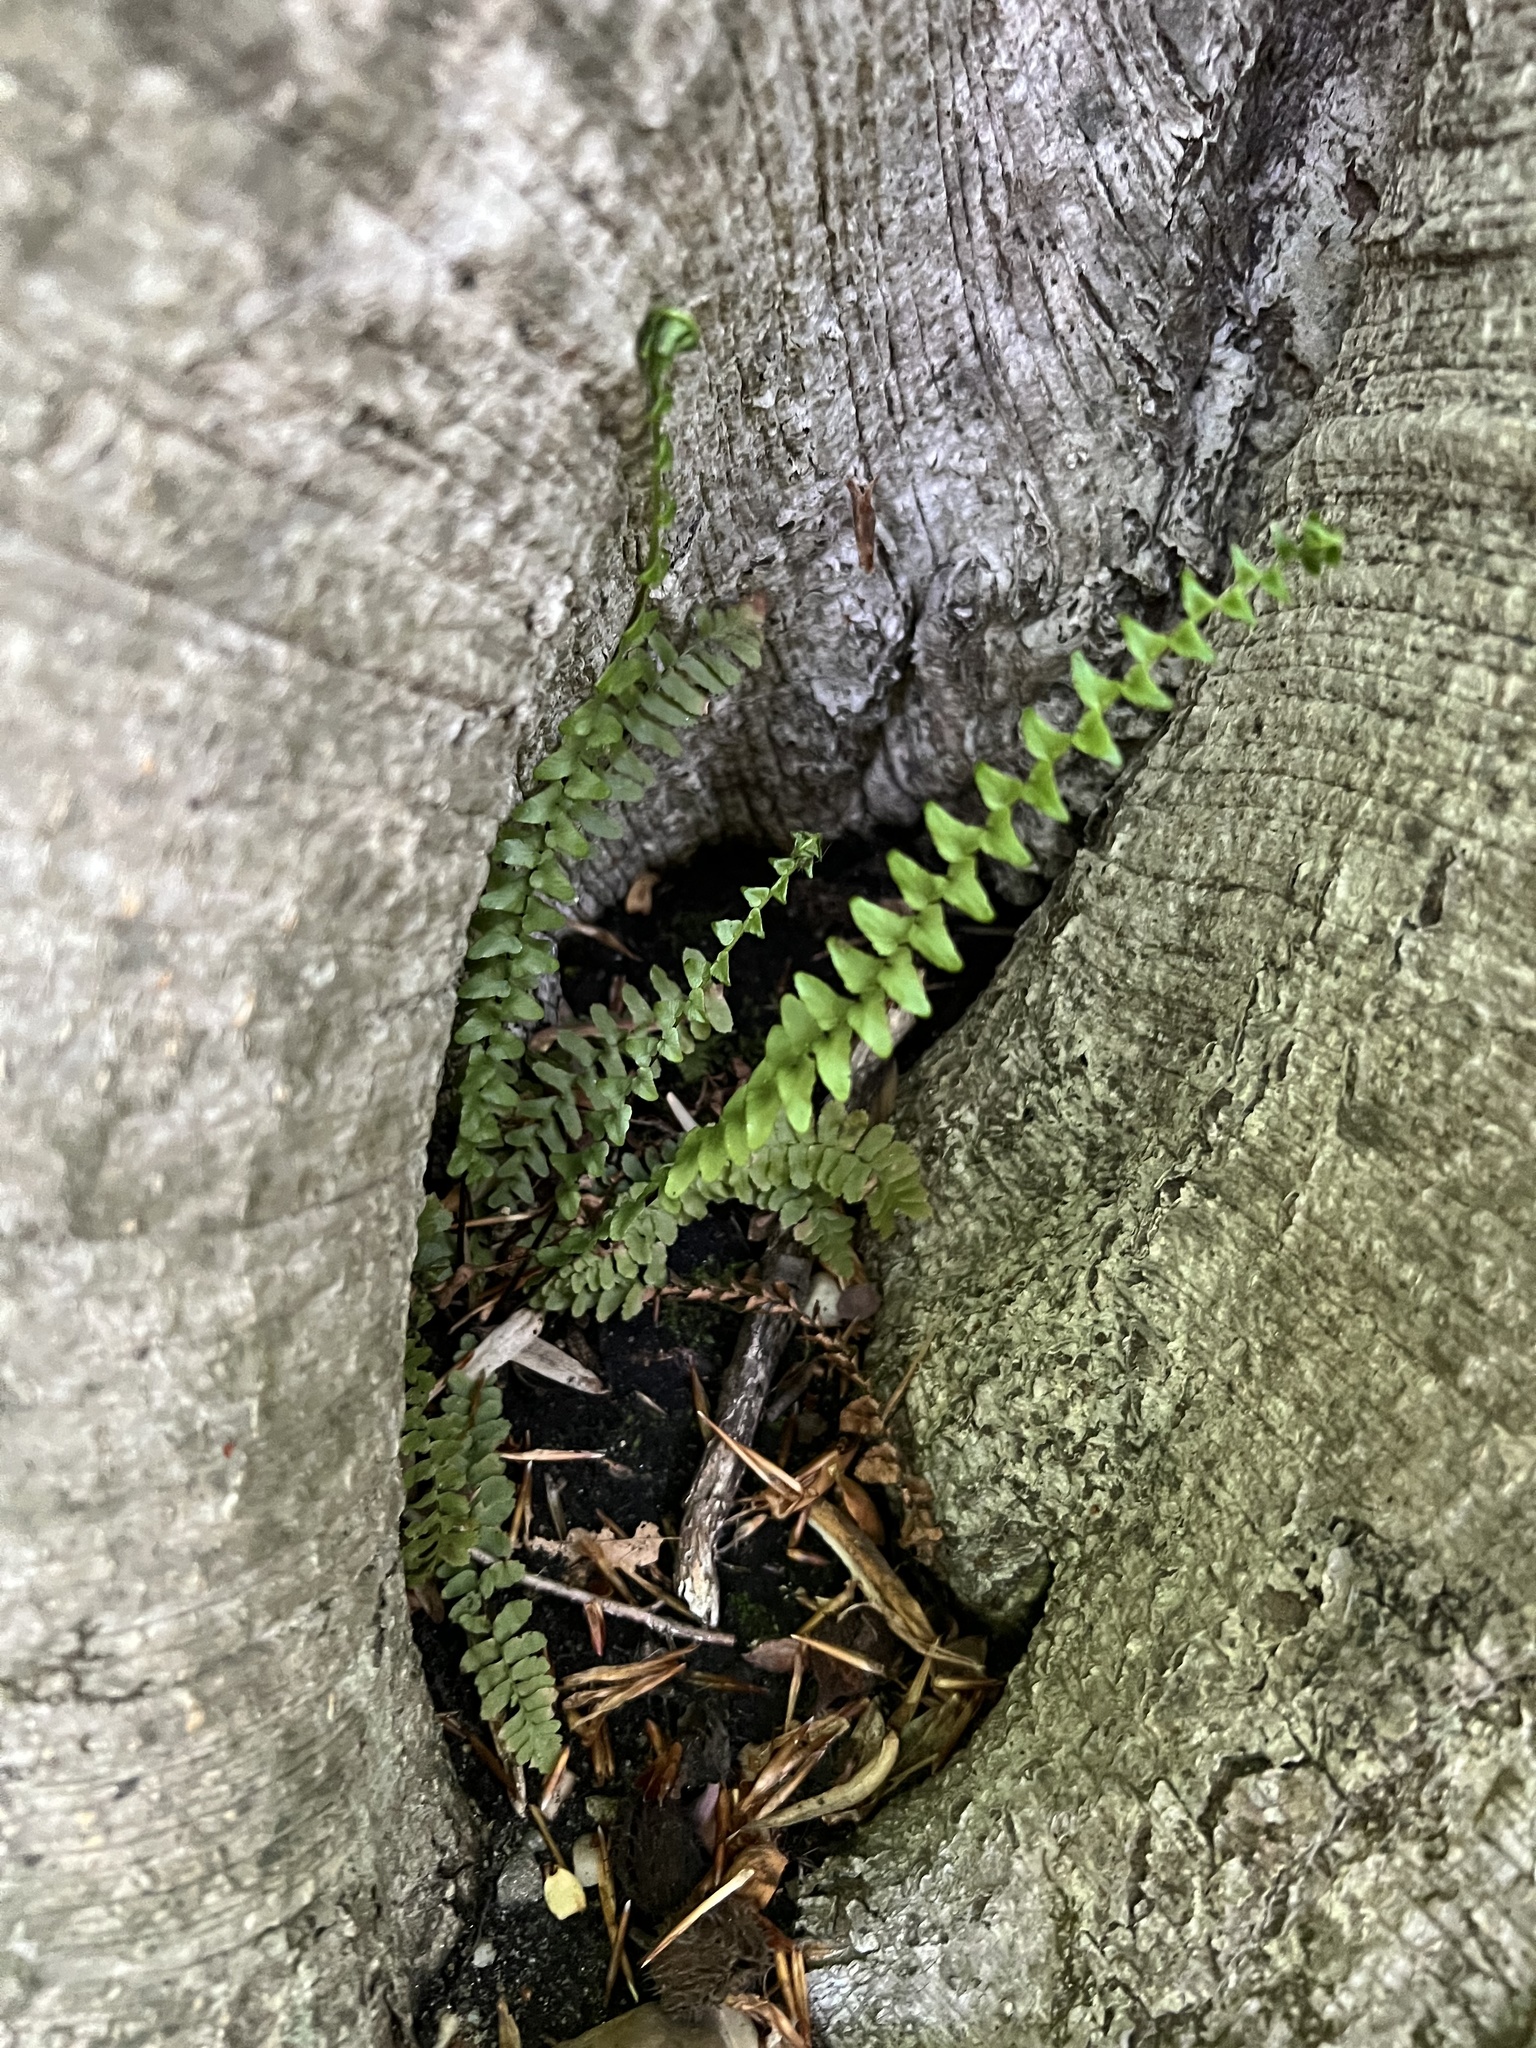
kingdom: Plantae
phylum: Tracheophyta
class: Polypodiopsida
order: Polypodiales
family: Aspleniaceae
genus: Asplenium
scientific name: Asplenium platyneuron
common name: Ebony spleenwort
